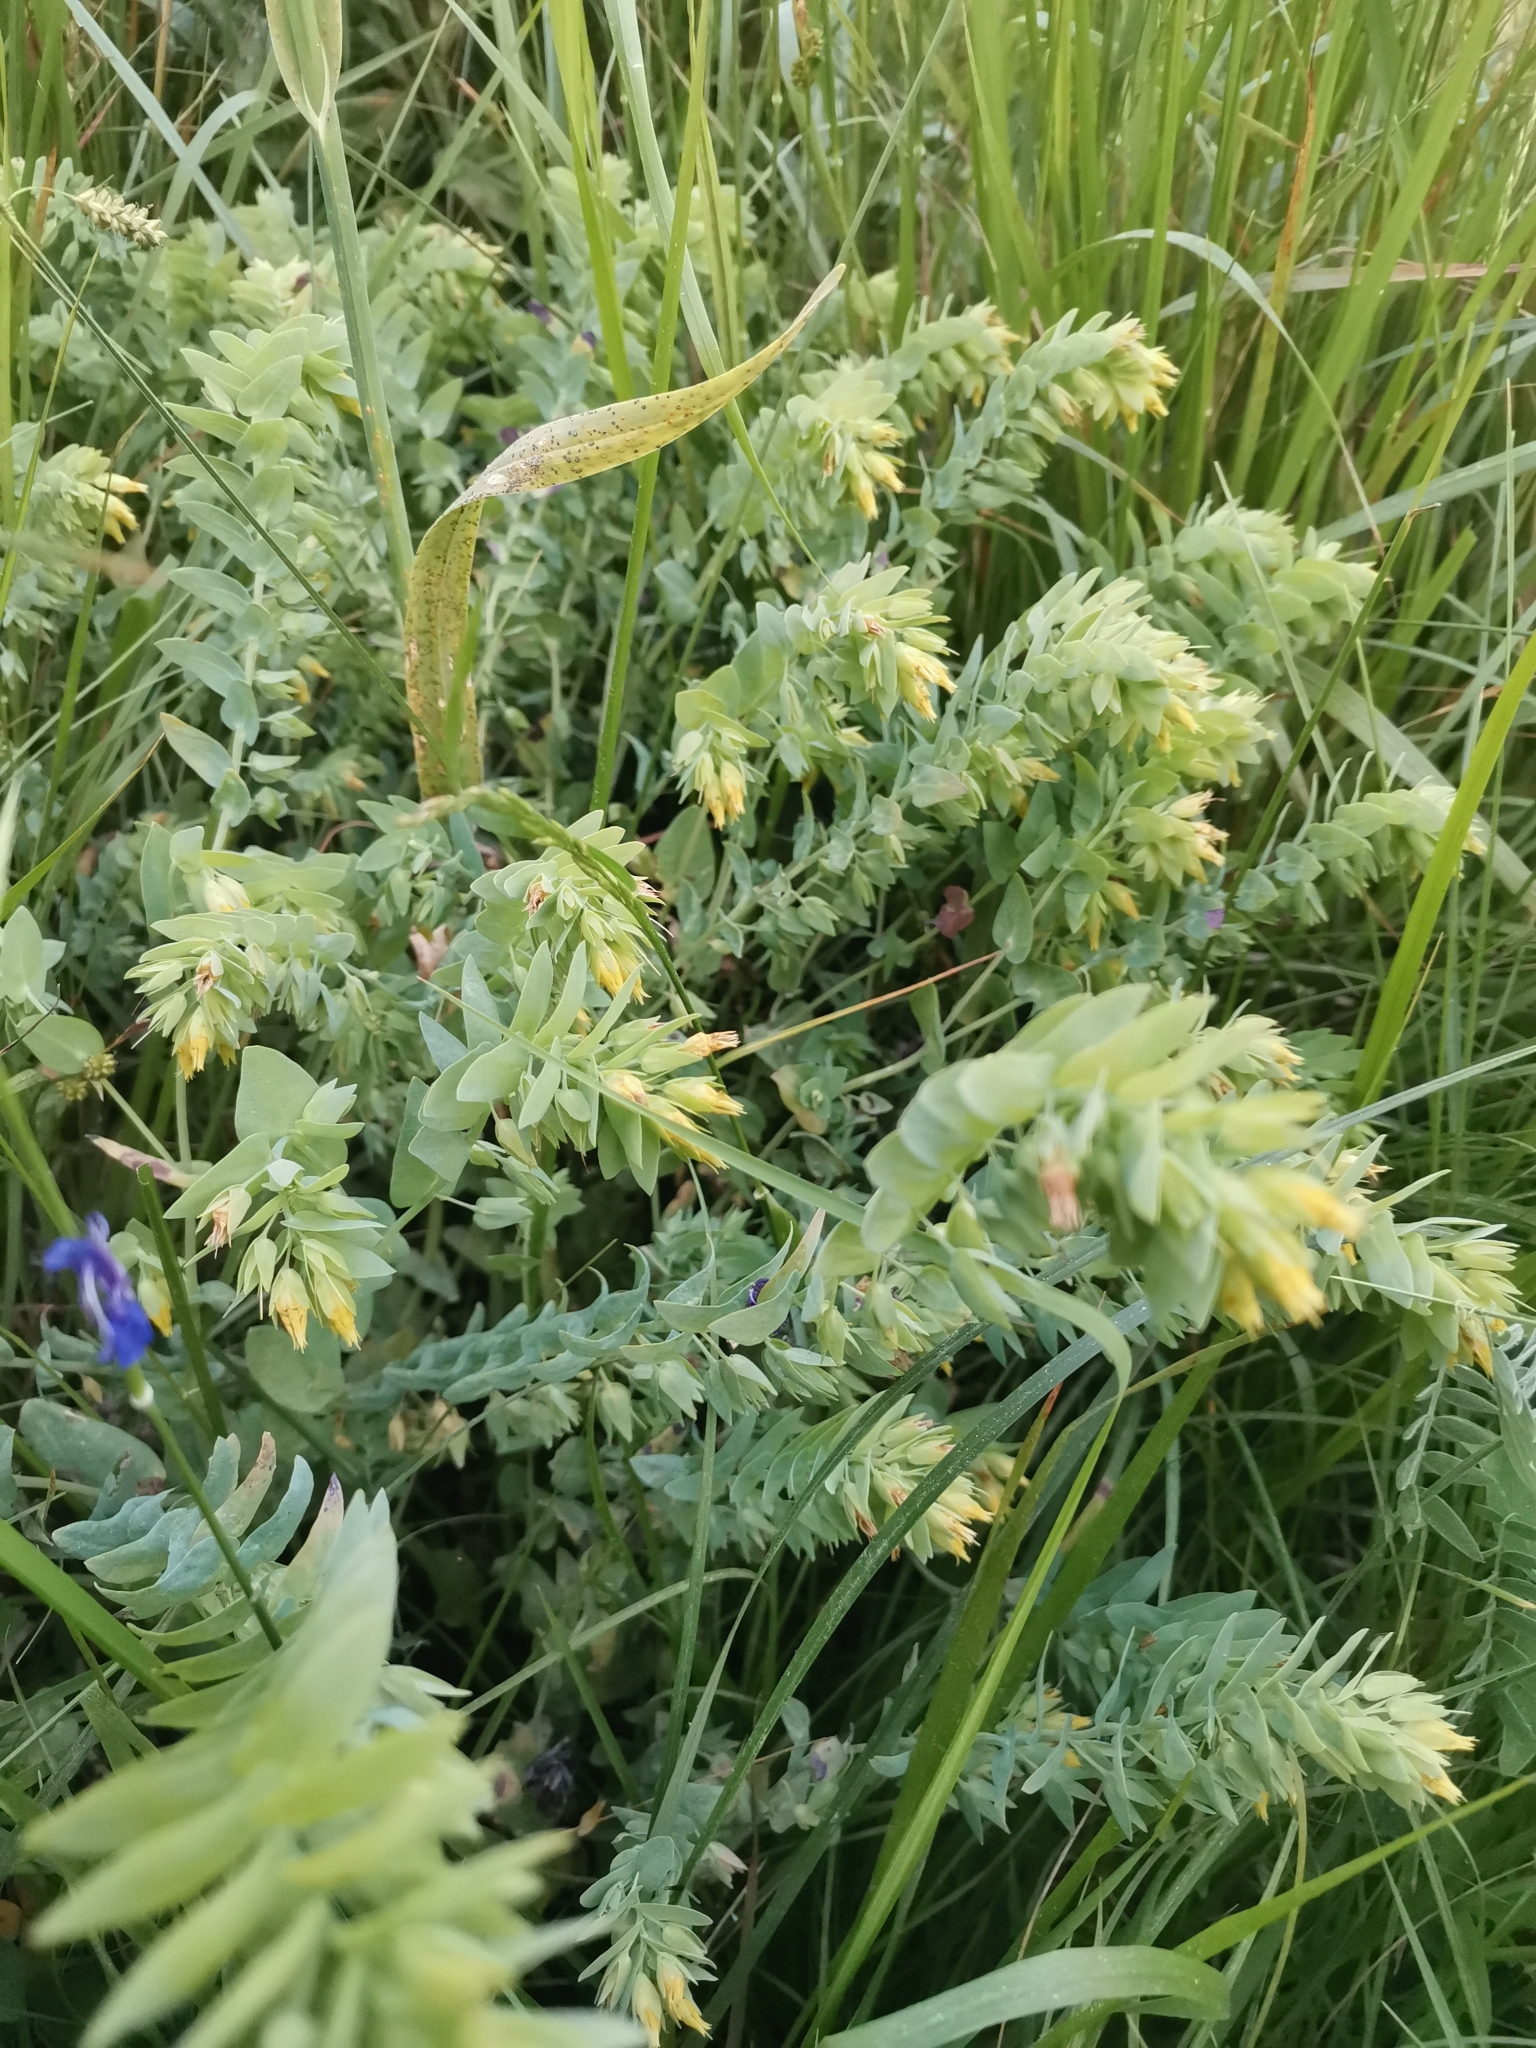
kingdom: Plantae
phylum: Tracheophyta
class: Magnoliopsida
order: Boraginales
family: Boraginaceae
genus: Cerinthe
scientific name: Cerinthe minor
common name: Lesser honeywort
